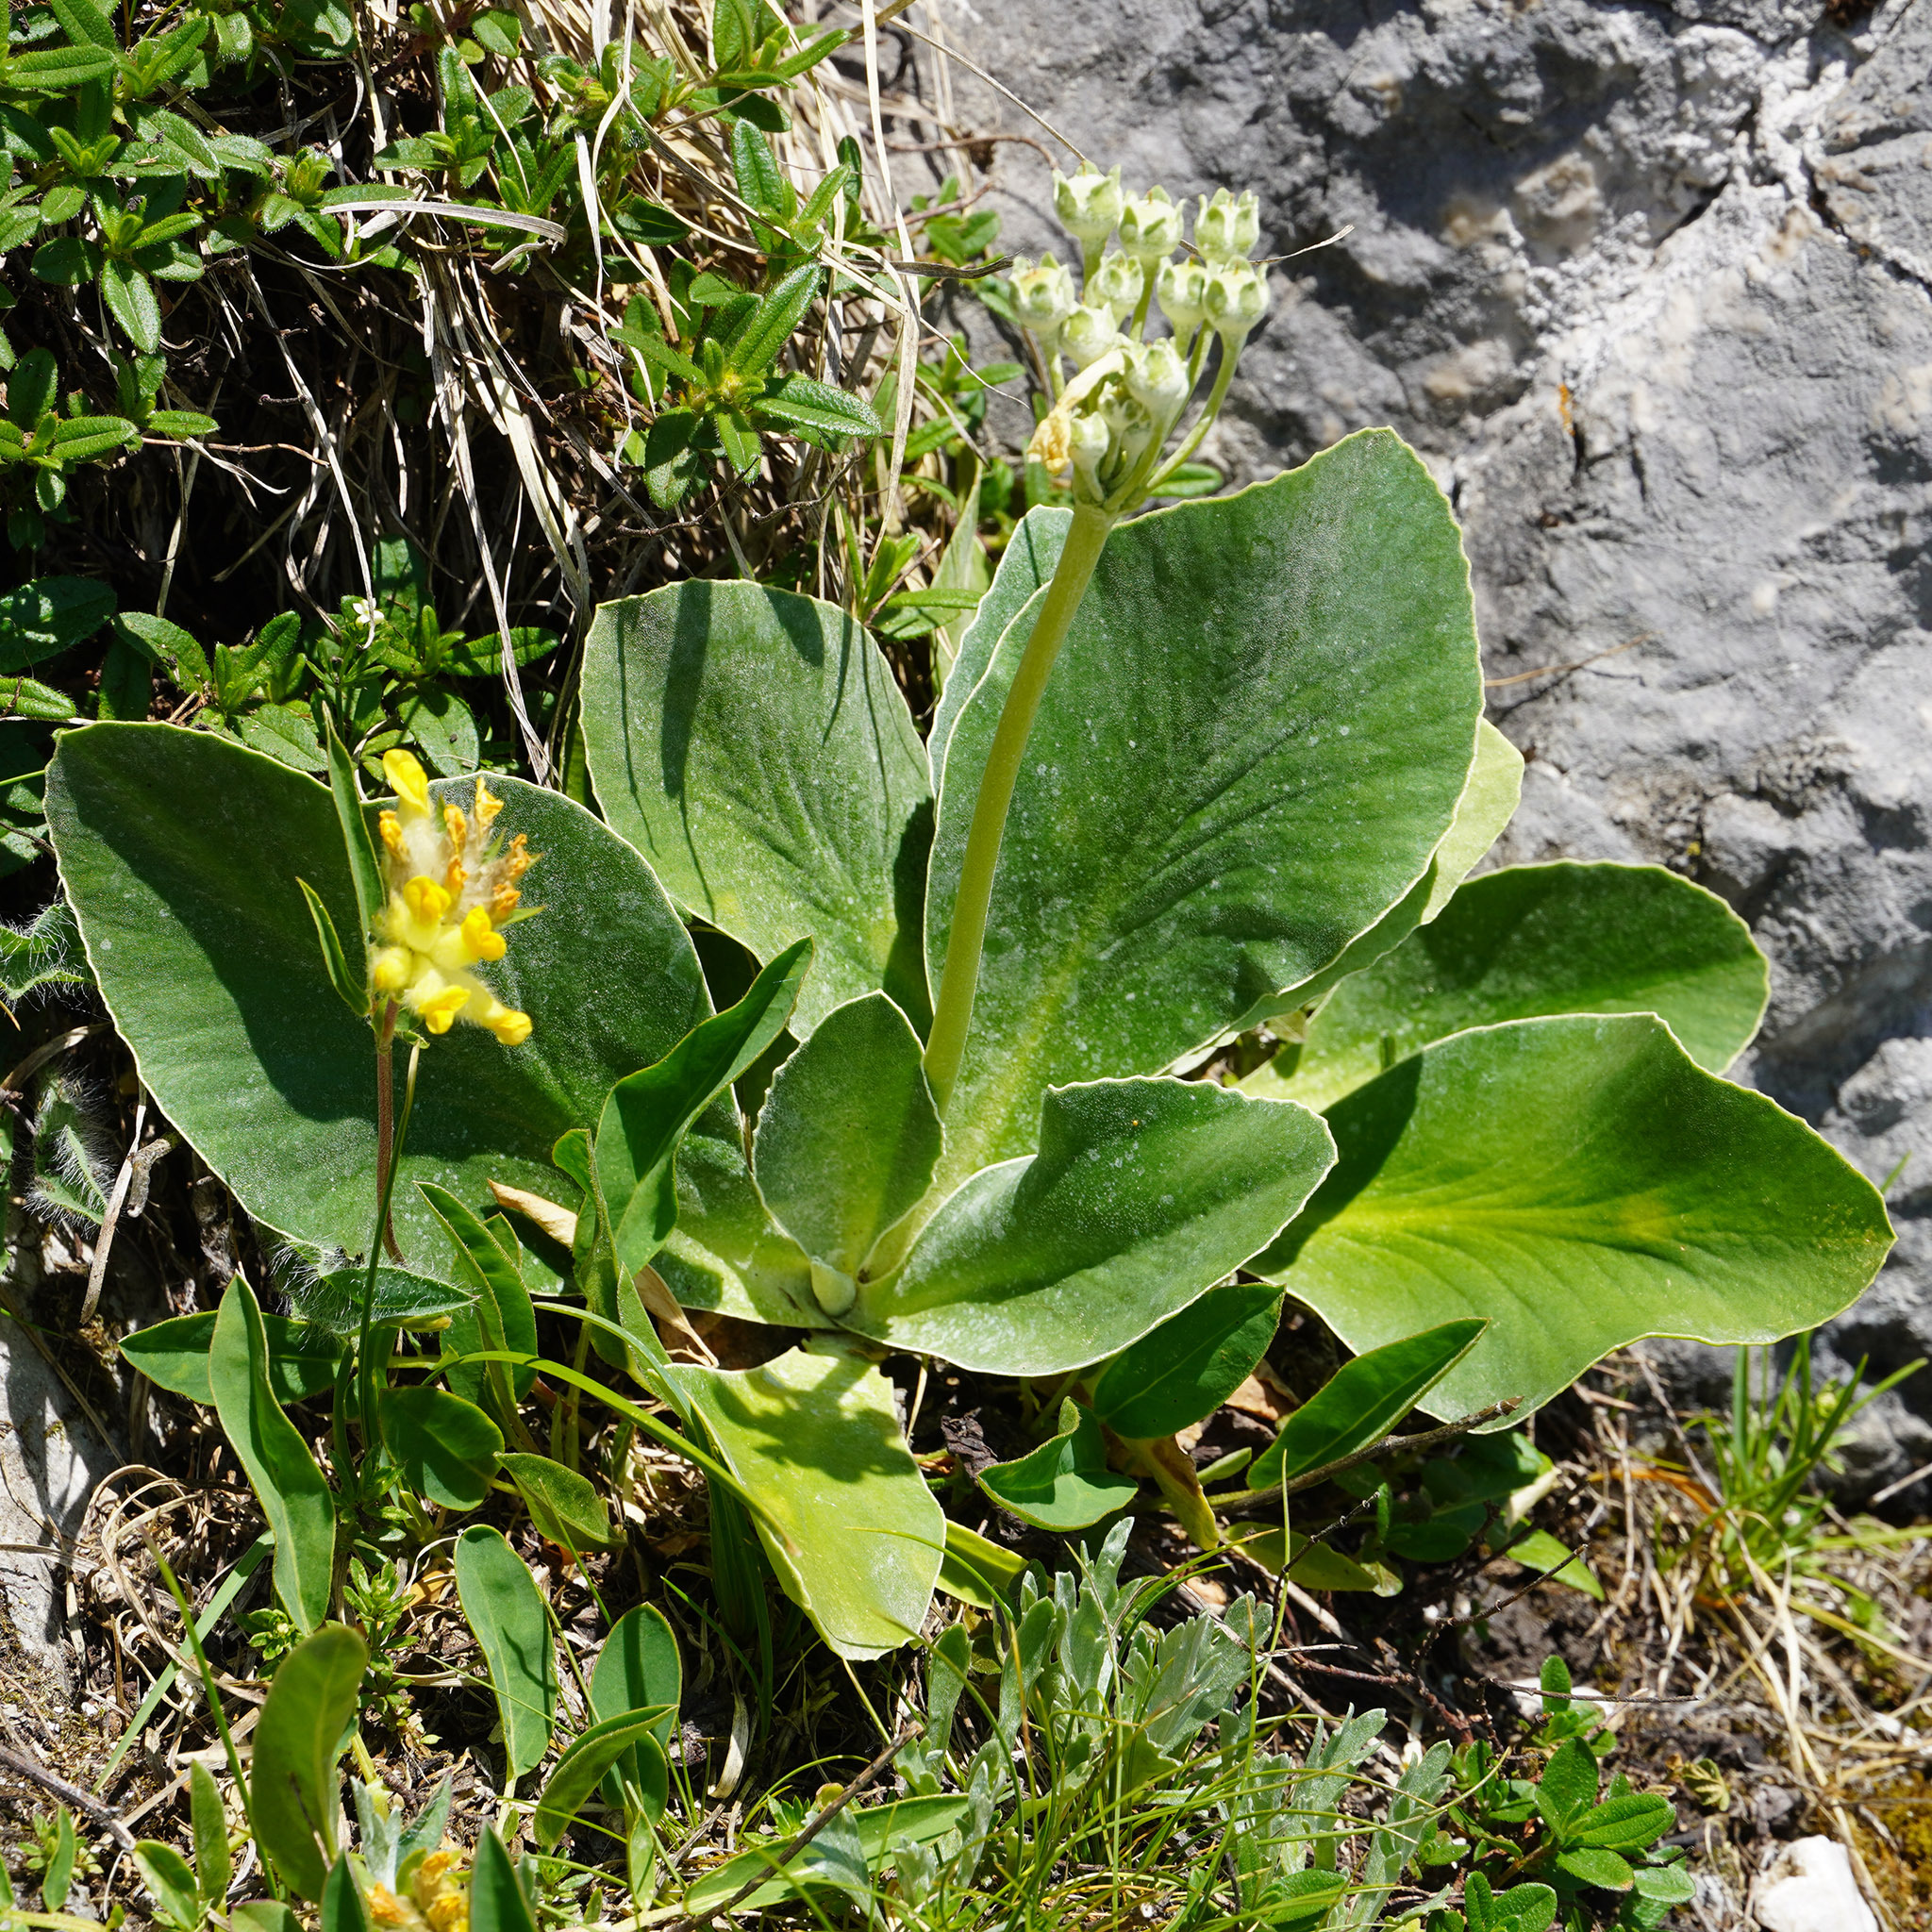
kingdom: Plantae
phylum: Tracheophyta
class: Magnoliopsida
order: Ericales
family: Primulaceae
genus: Primula
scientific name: Primula auricula
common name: Auricula
